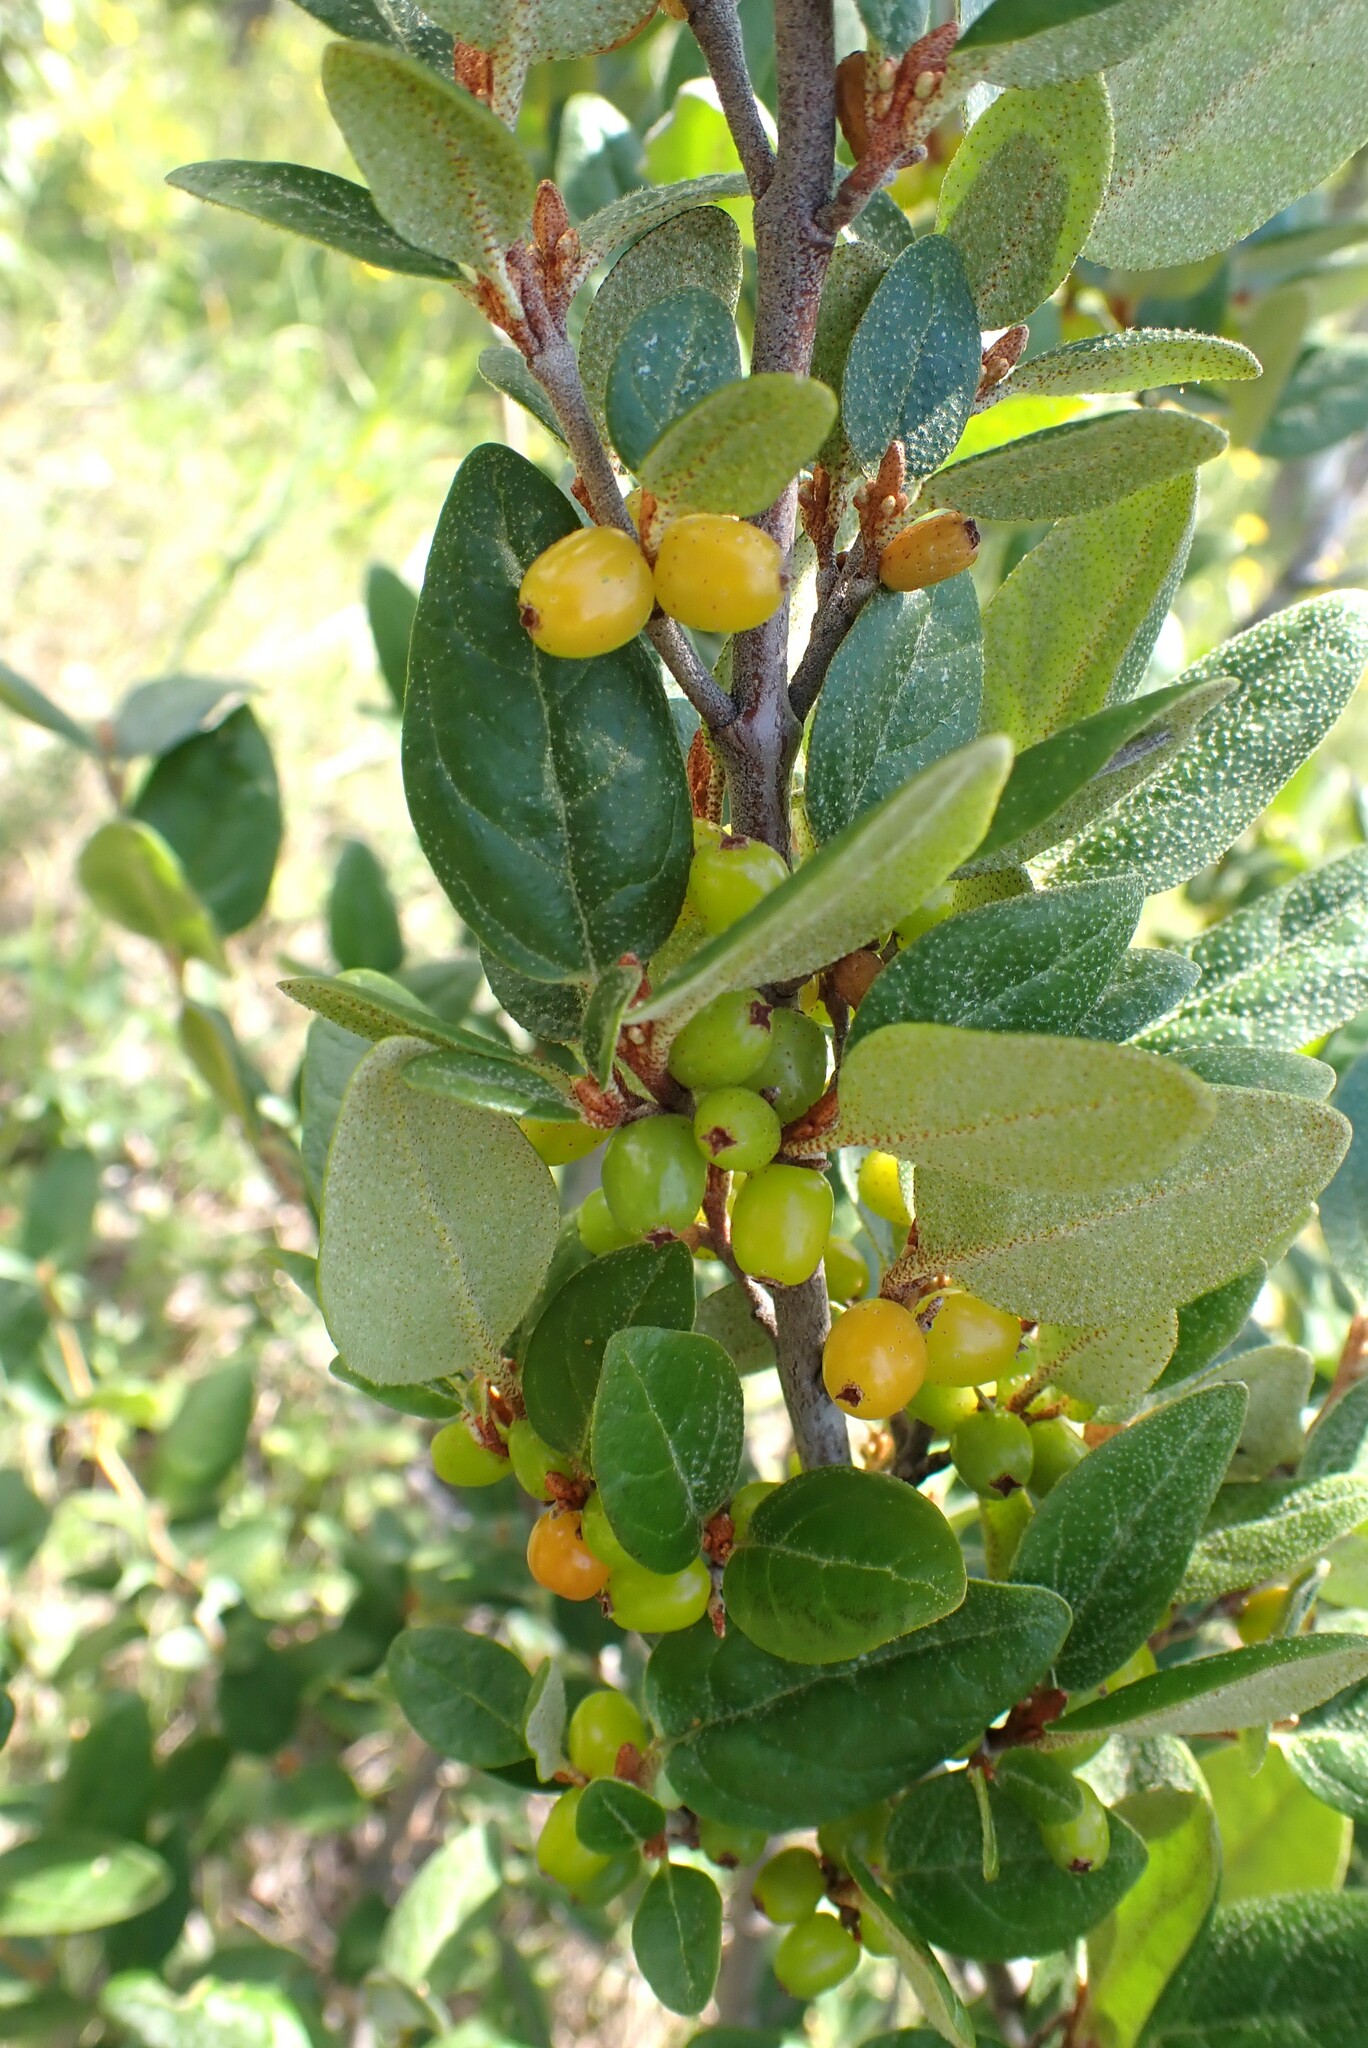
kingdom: Plantae
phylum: Tracheophyta
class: Magnoliopsida
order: Rosales
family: Elaeagnaceae
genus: Shepherdia
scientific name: Shepherdia canadensis
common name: Soapberry
